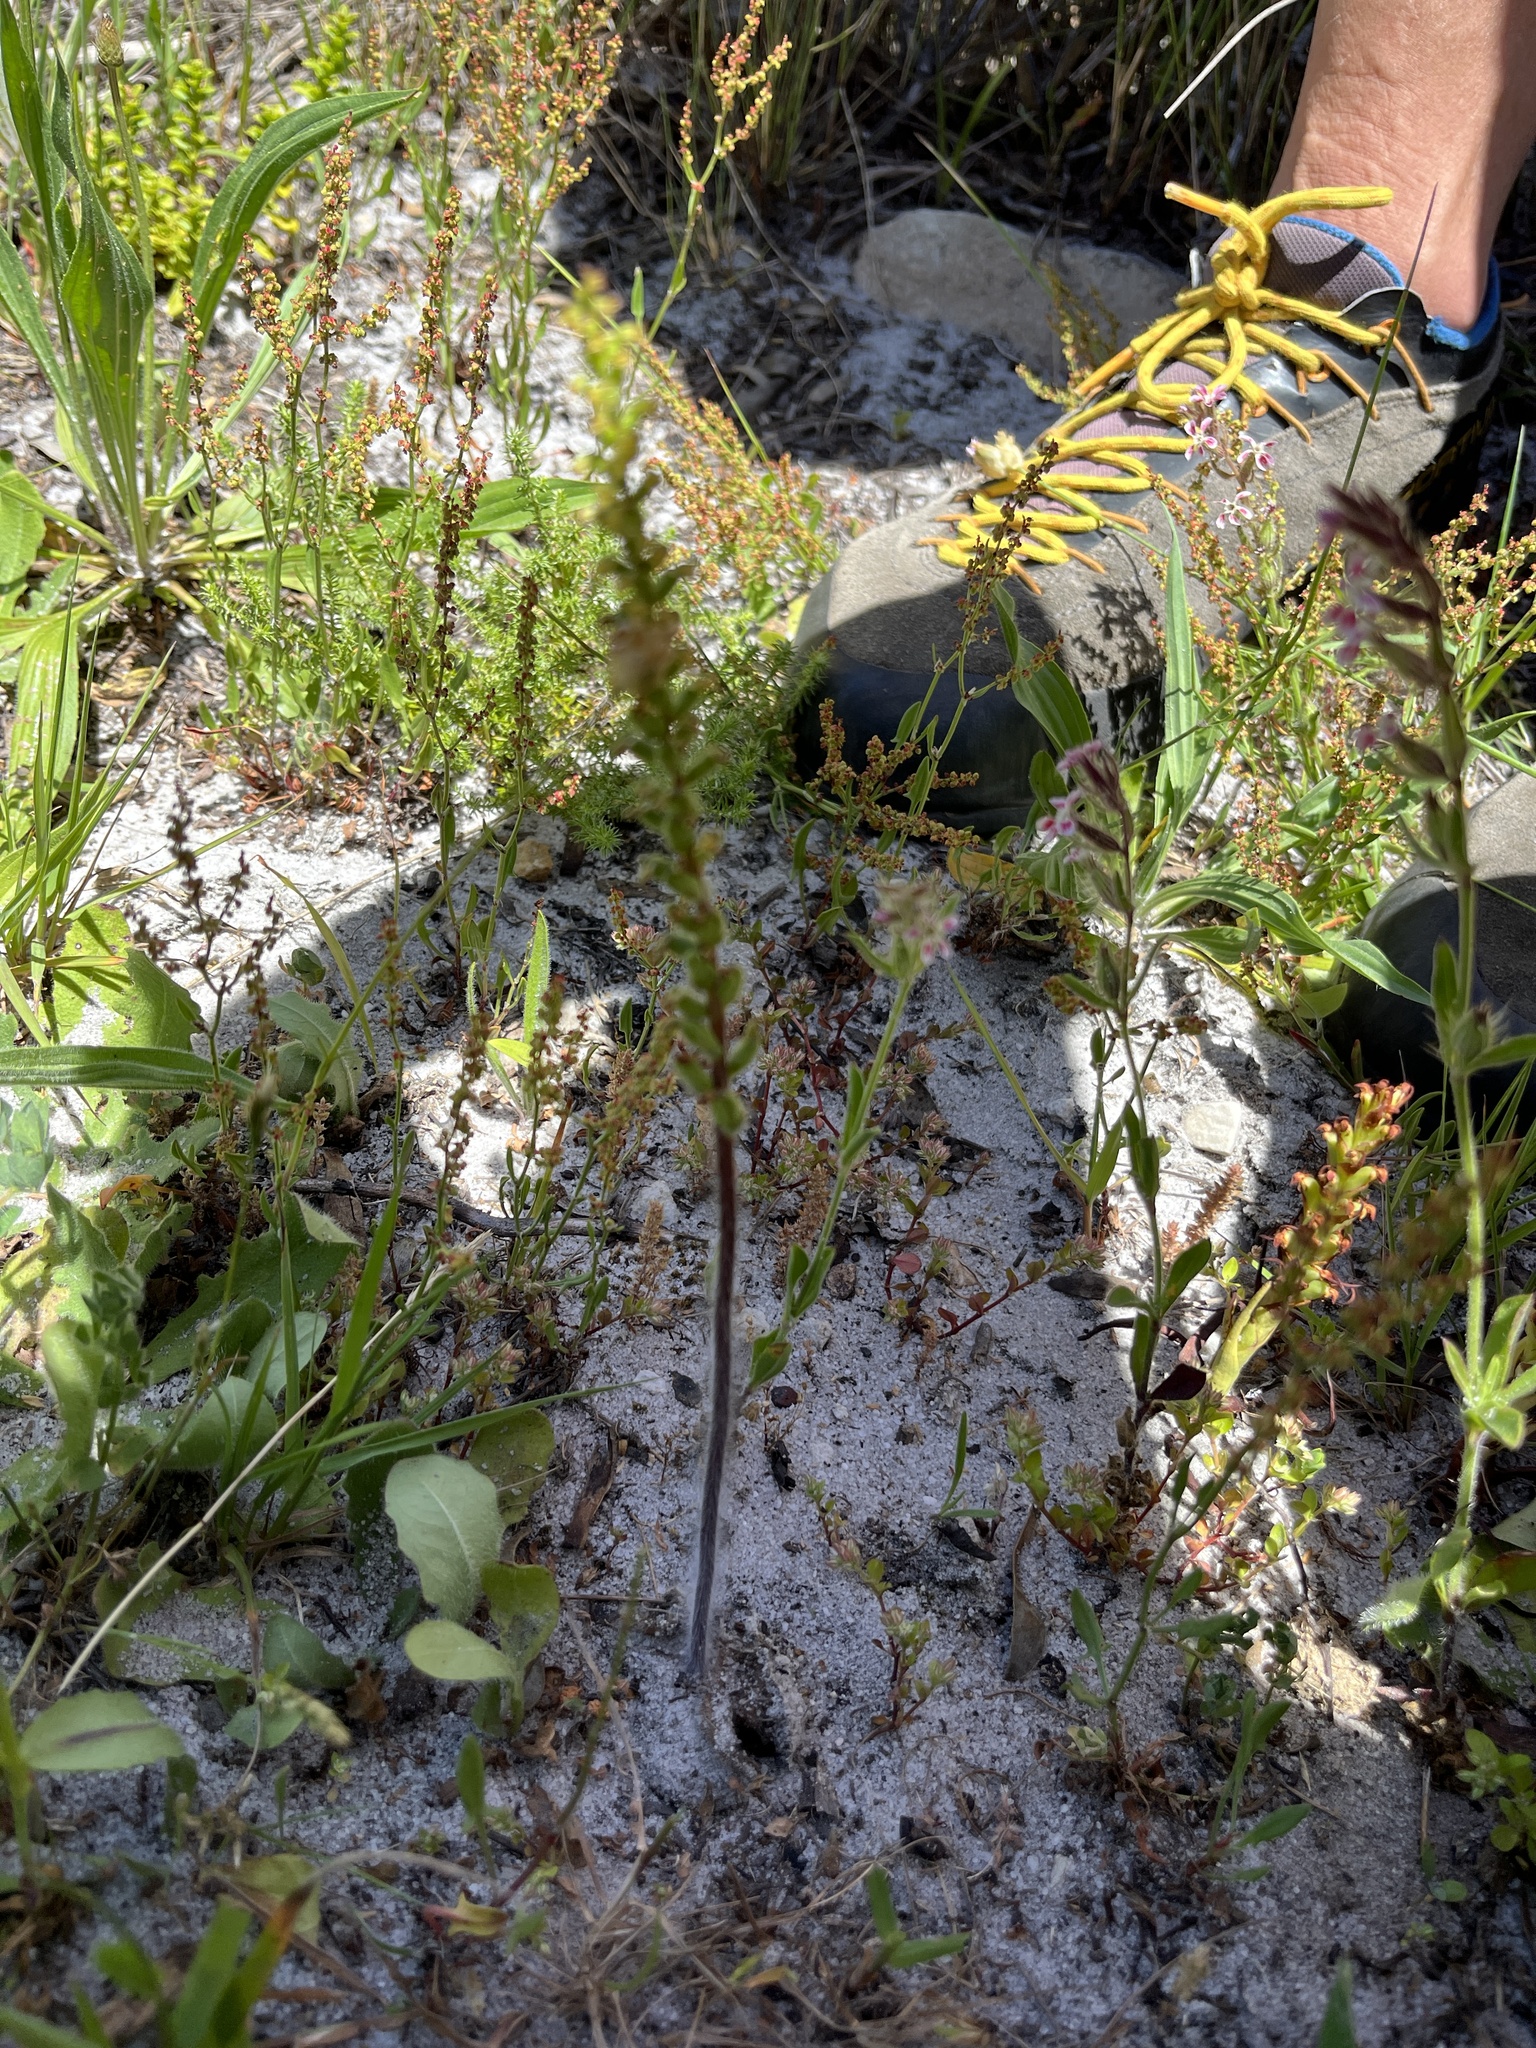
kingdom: Plantae
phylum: Tracheophyta
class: Liliopsida
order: Asparagales
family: Orchidaceae
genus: Holothrix
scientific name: Holothrix villosa
